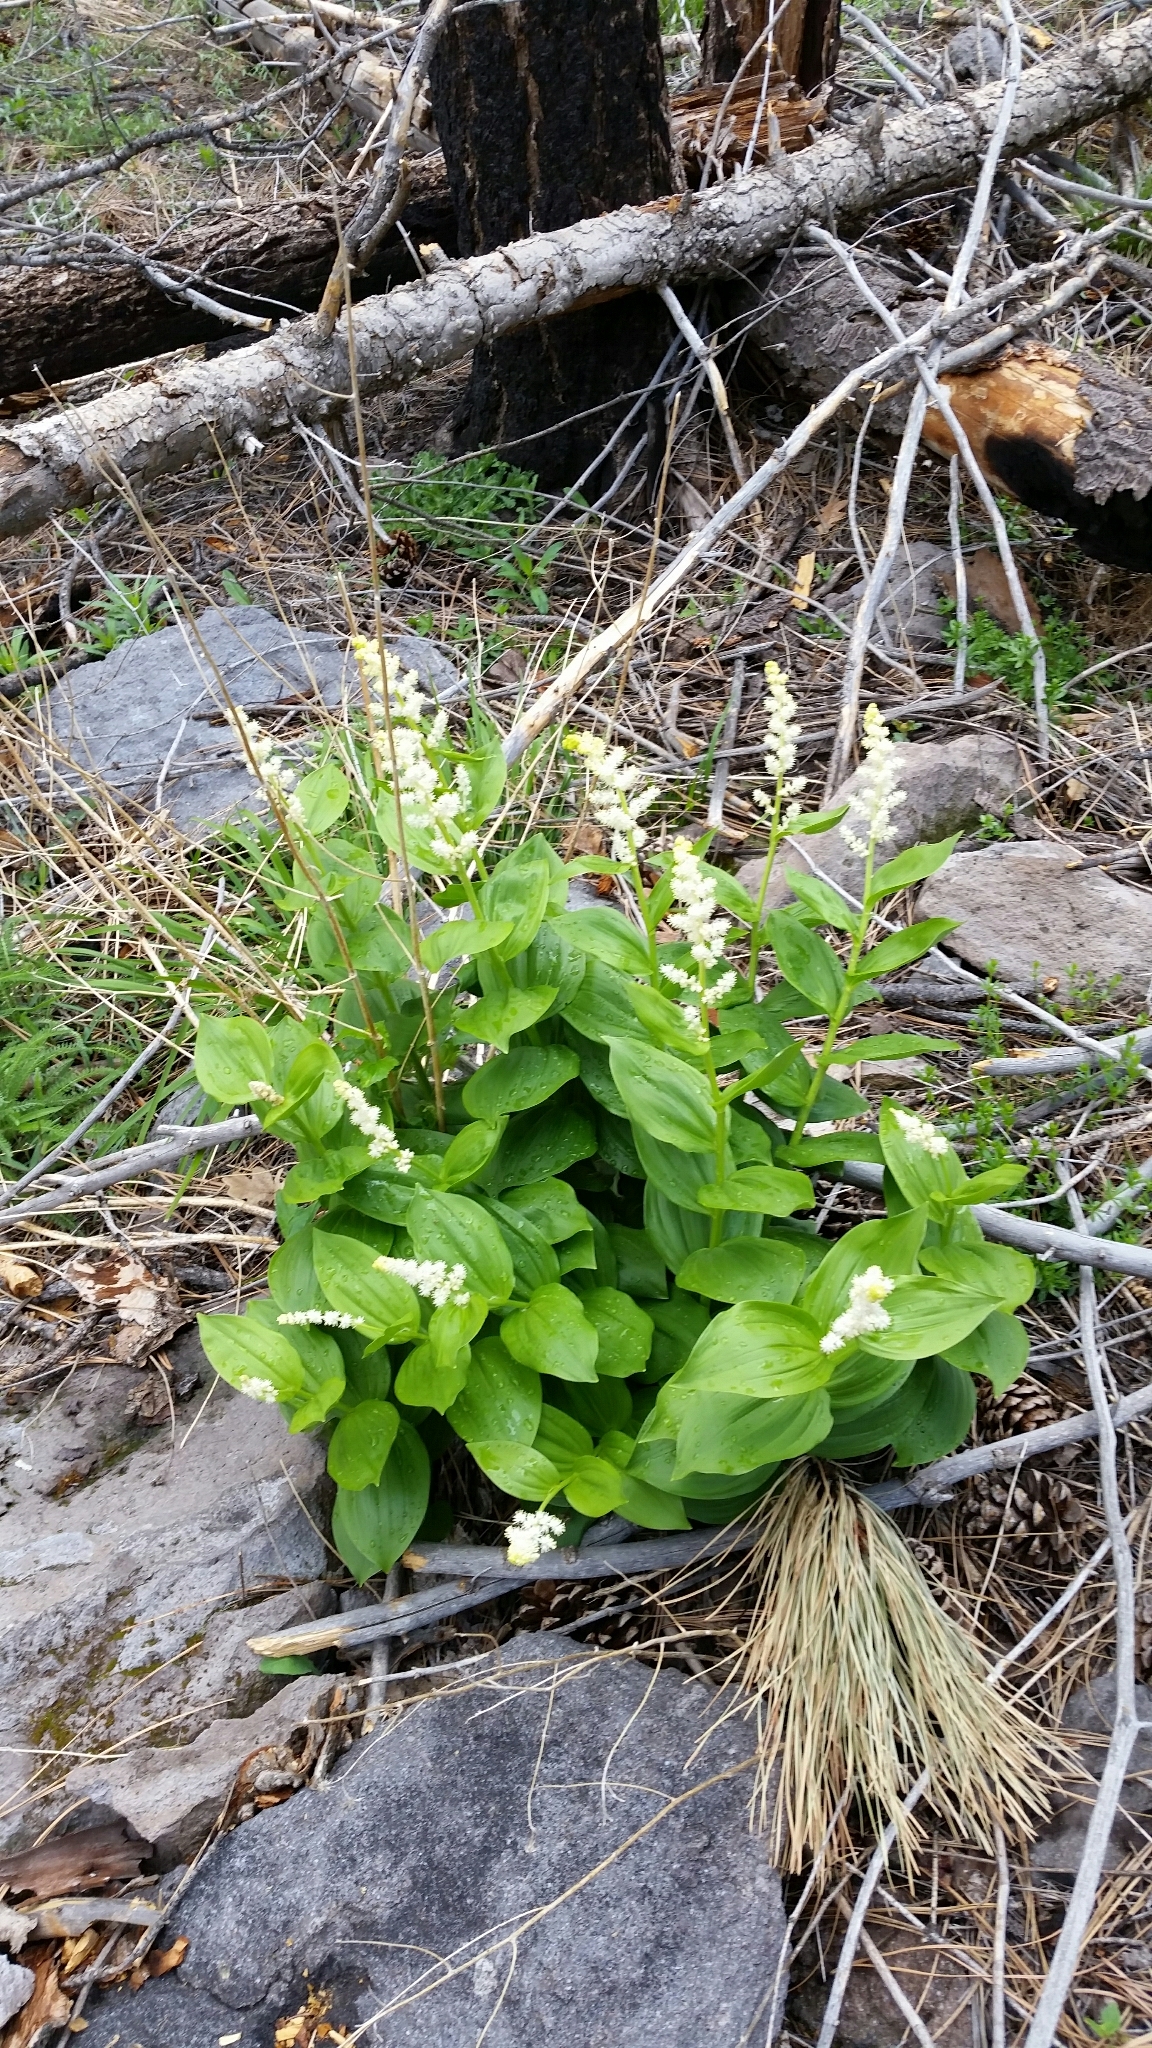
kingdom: Plantae
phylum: Tracheophyta
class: Liliopsida
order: Asparagales
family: Asparagaceae
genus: Maianthemum
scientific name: Maianthemum racemosum
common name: False spikenard
